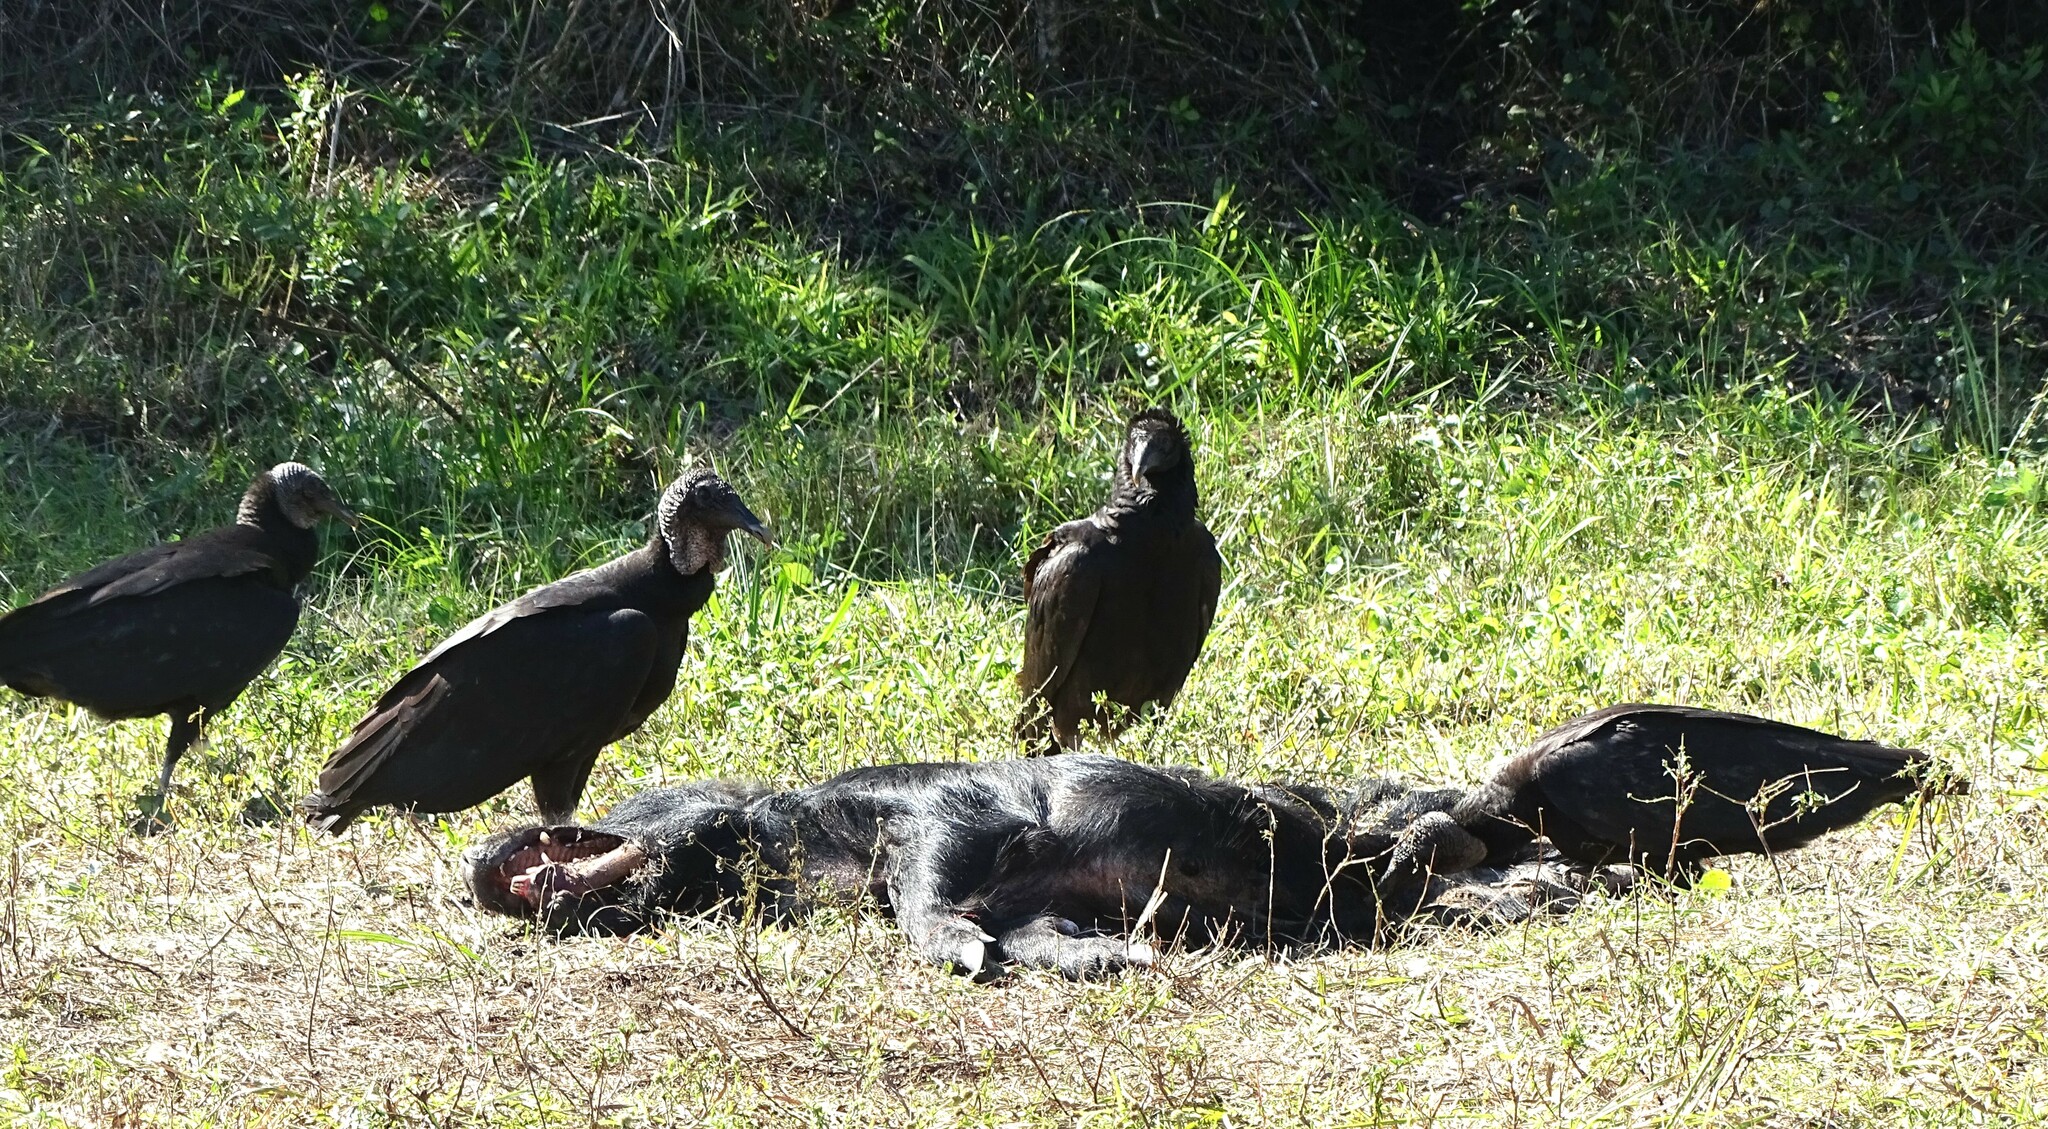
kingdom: Animalia
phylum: Chordata
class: Mammalia
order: Artiodactyla
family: Suidae
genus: Sus
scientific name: Sus scrofa
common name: Wild boar
